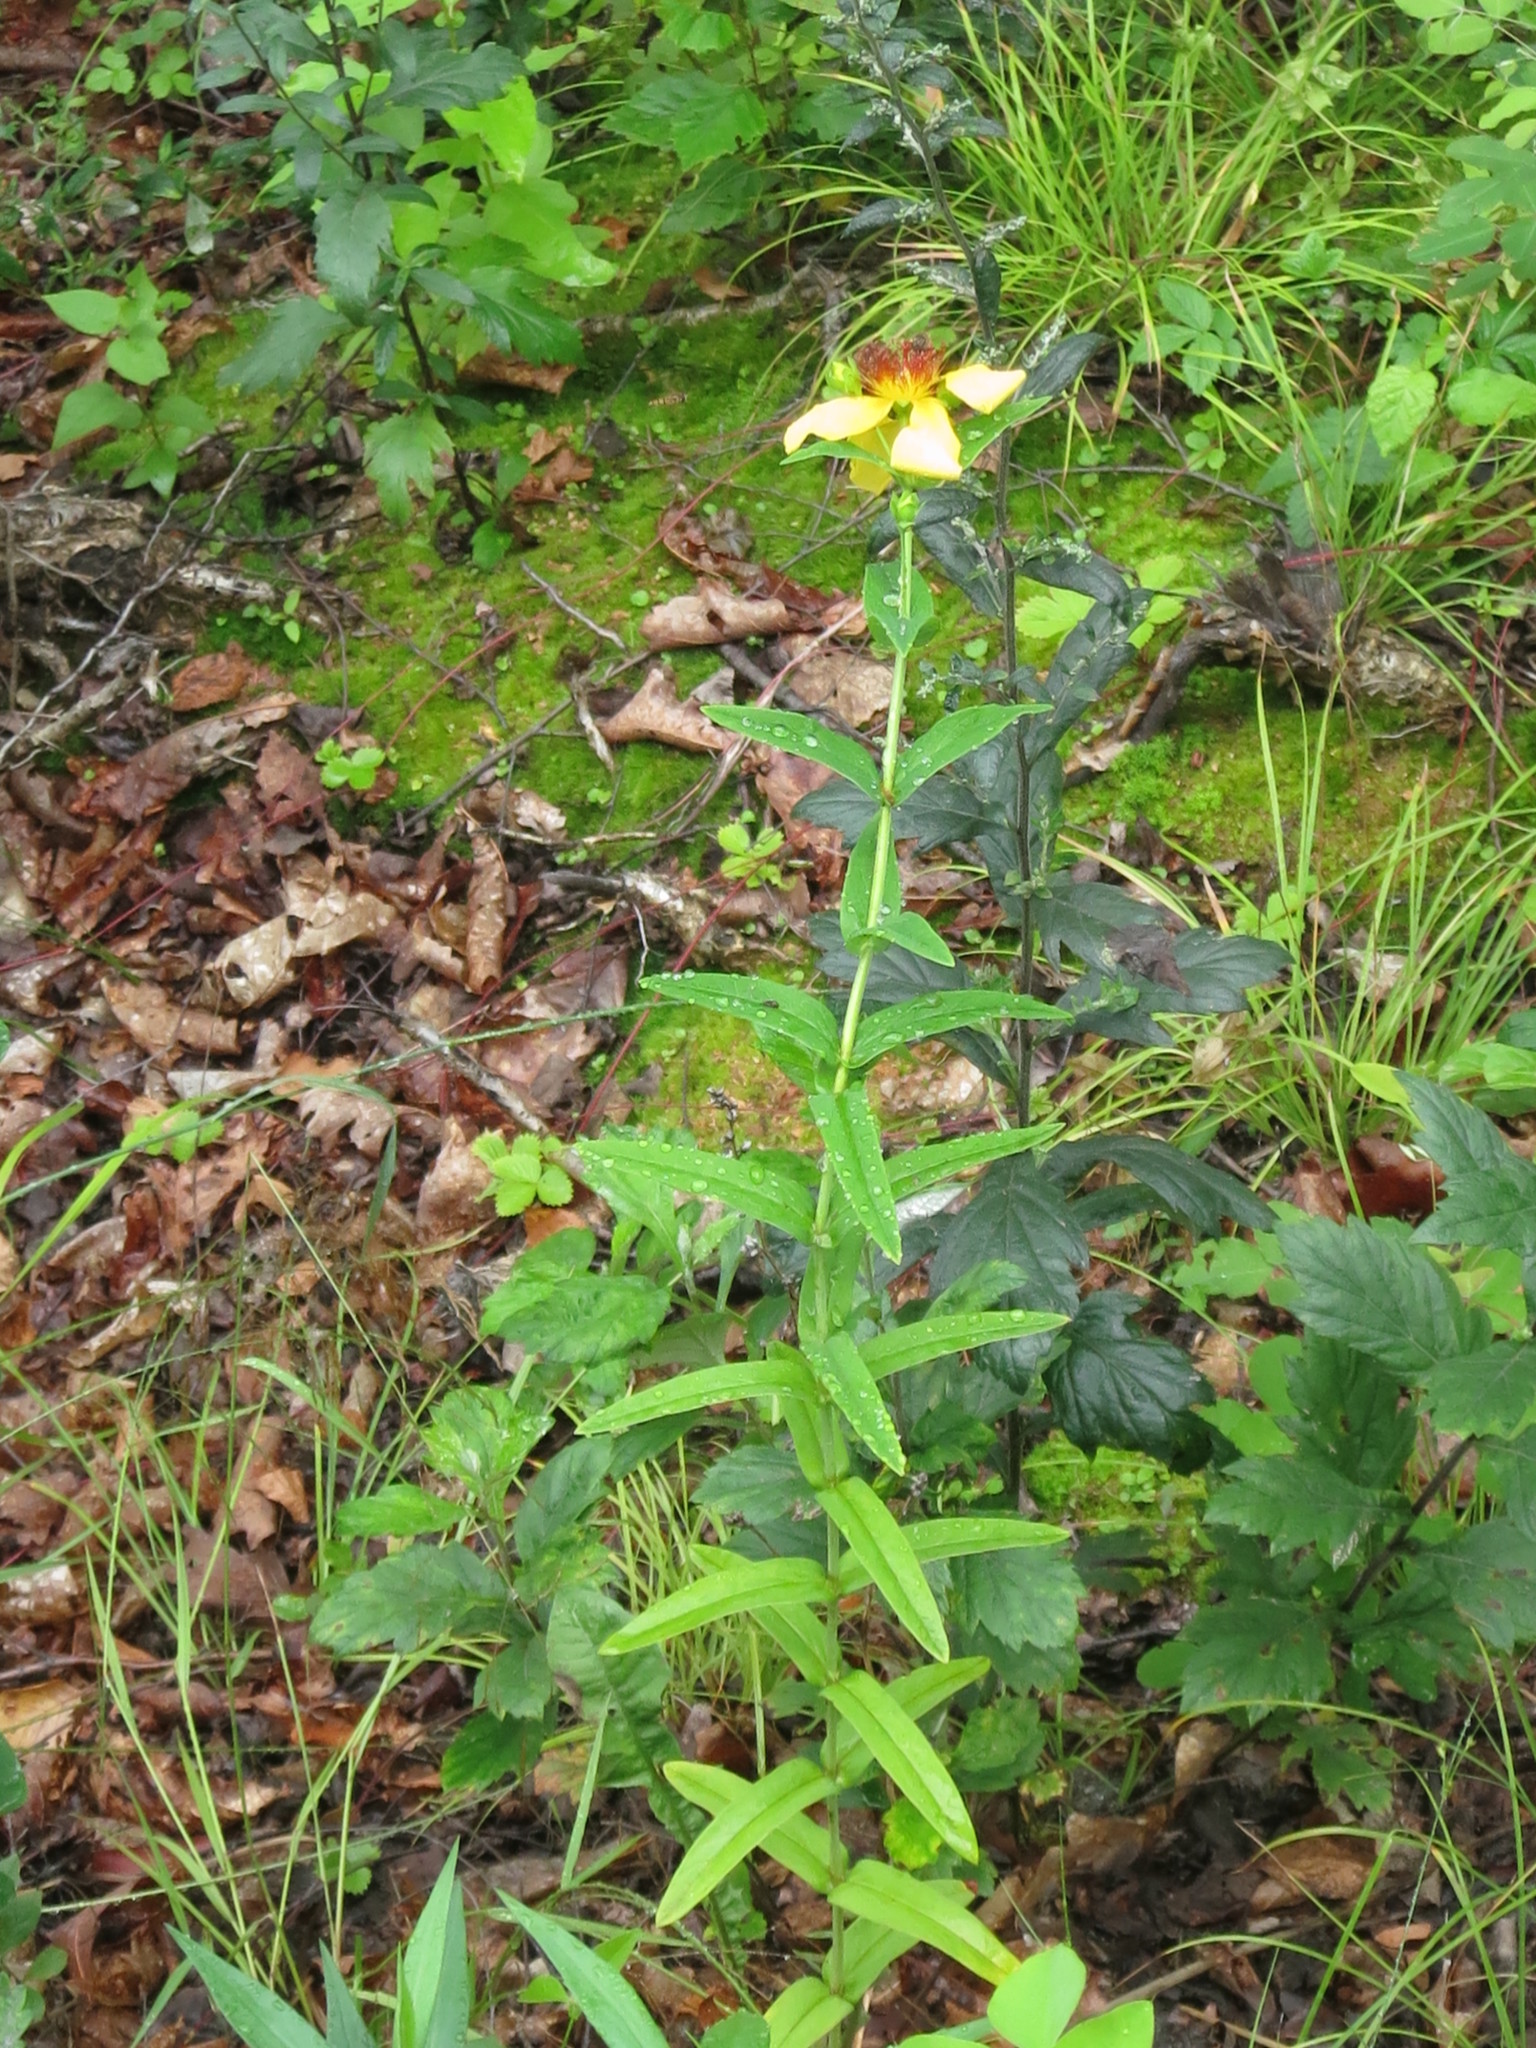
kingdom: Plantae
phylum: Tracheophyta
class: Magnoliopsida
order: Malpighiales
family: Hypericaceae
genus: Hypericum
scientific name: Hypericum ascyron
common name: Giant st. john's-wort
